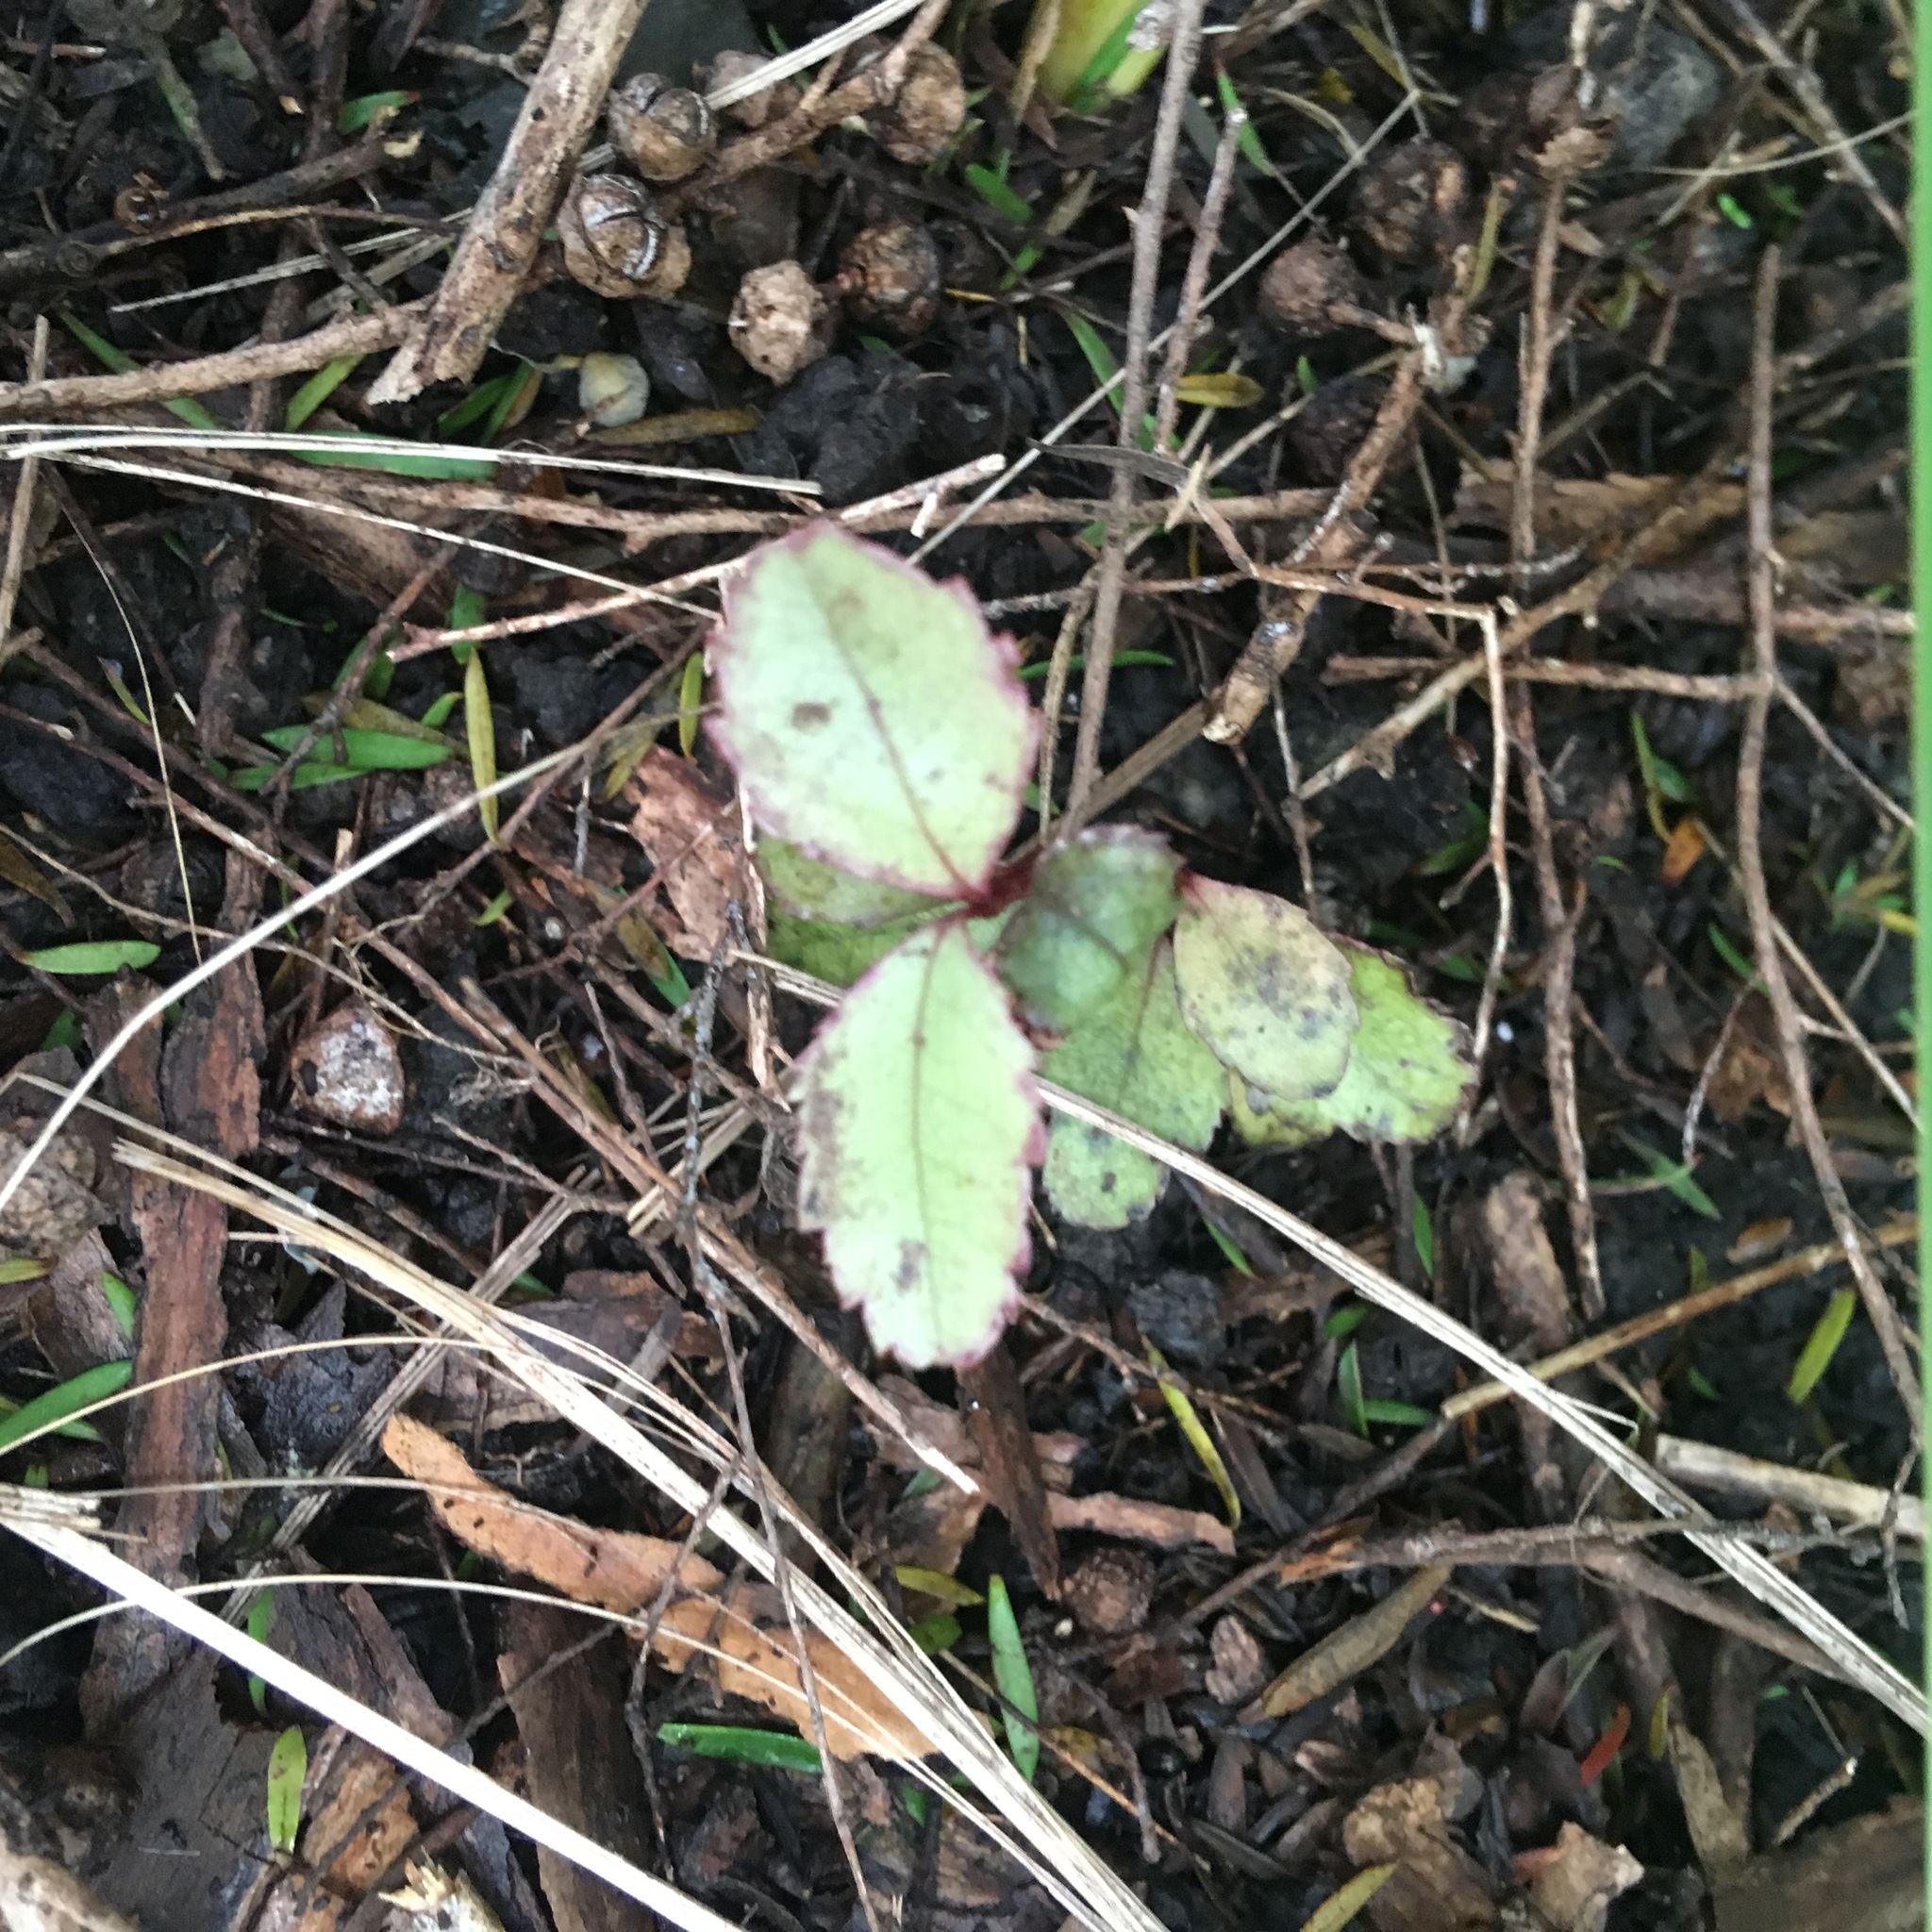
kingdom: Plantae
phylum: Tracheophyta
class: Magnoliopsida
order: Ericales
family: Primulaceae
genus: Myrsine
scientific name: Myrsine australis
